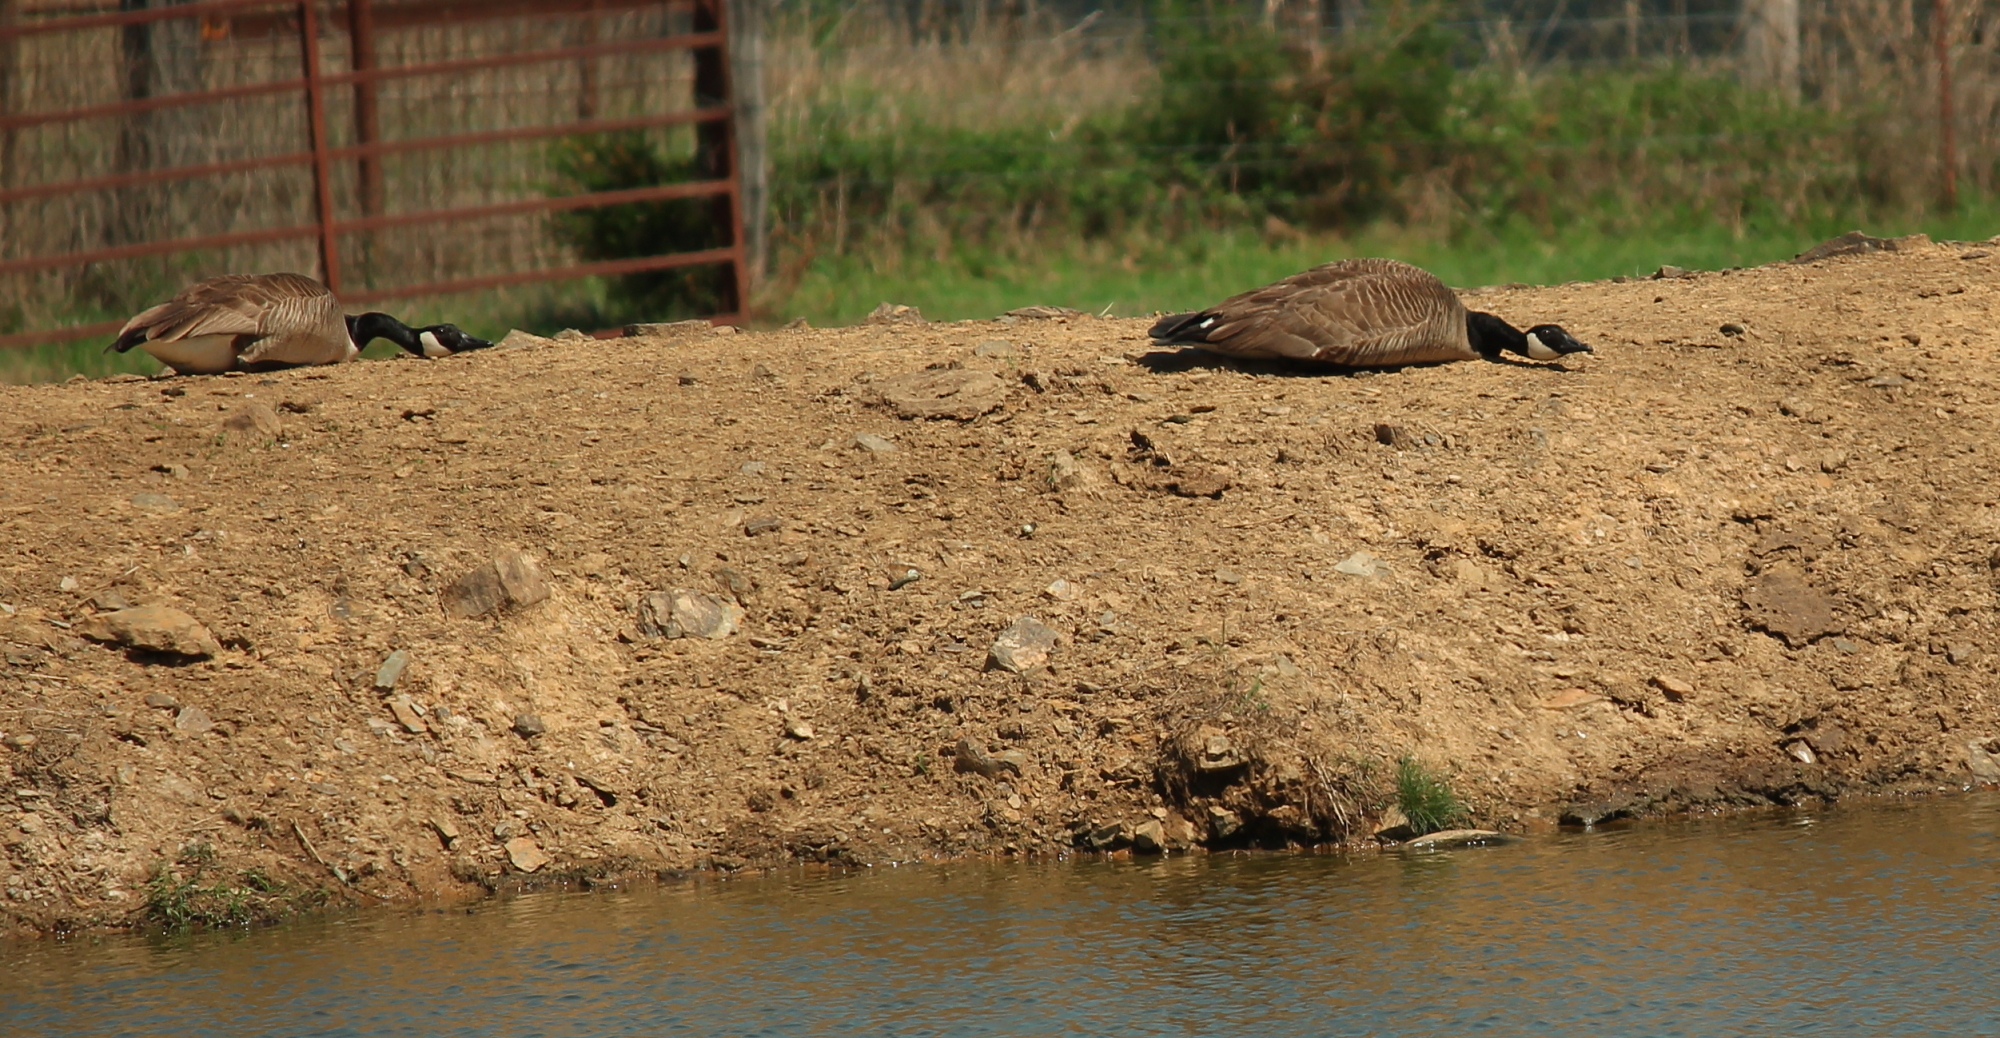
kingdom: Animalia
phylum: Chordata
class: Aves
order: Anseriformes
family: Anatidae
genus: Branta
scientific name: Branta canadensis
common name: Canada goose
